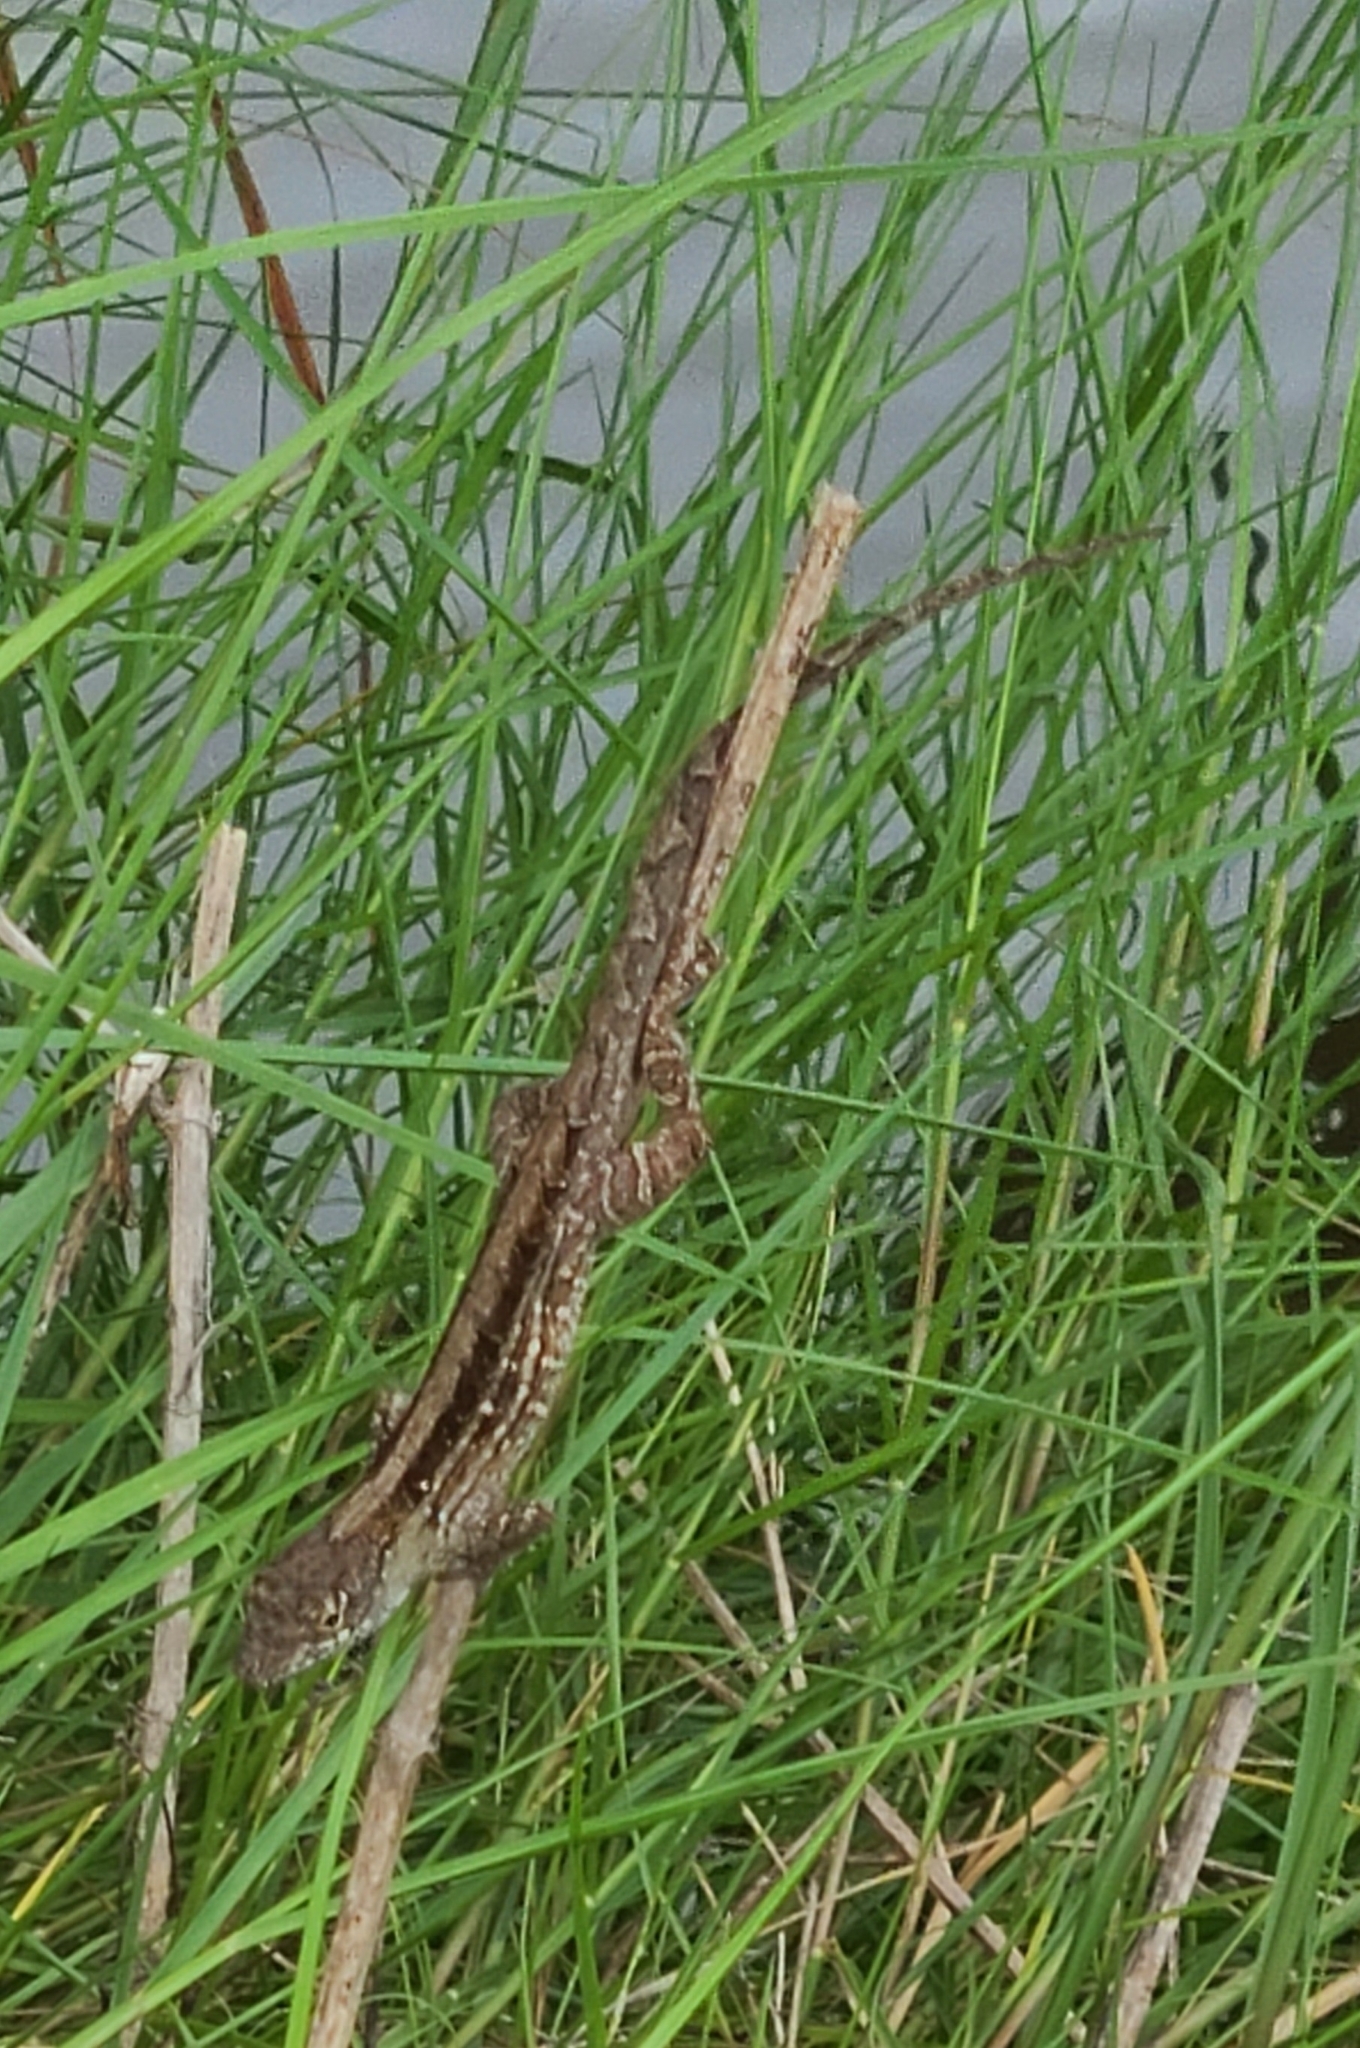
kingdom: Animalia
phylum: Chordata
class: Squamata
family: Dactyloidae
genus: Anolis
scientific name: Anolis sagrei
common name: Brown anole
